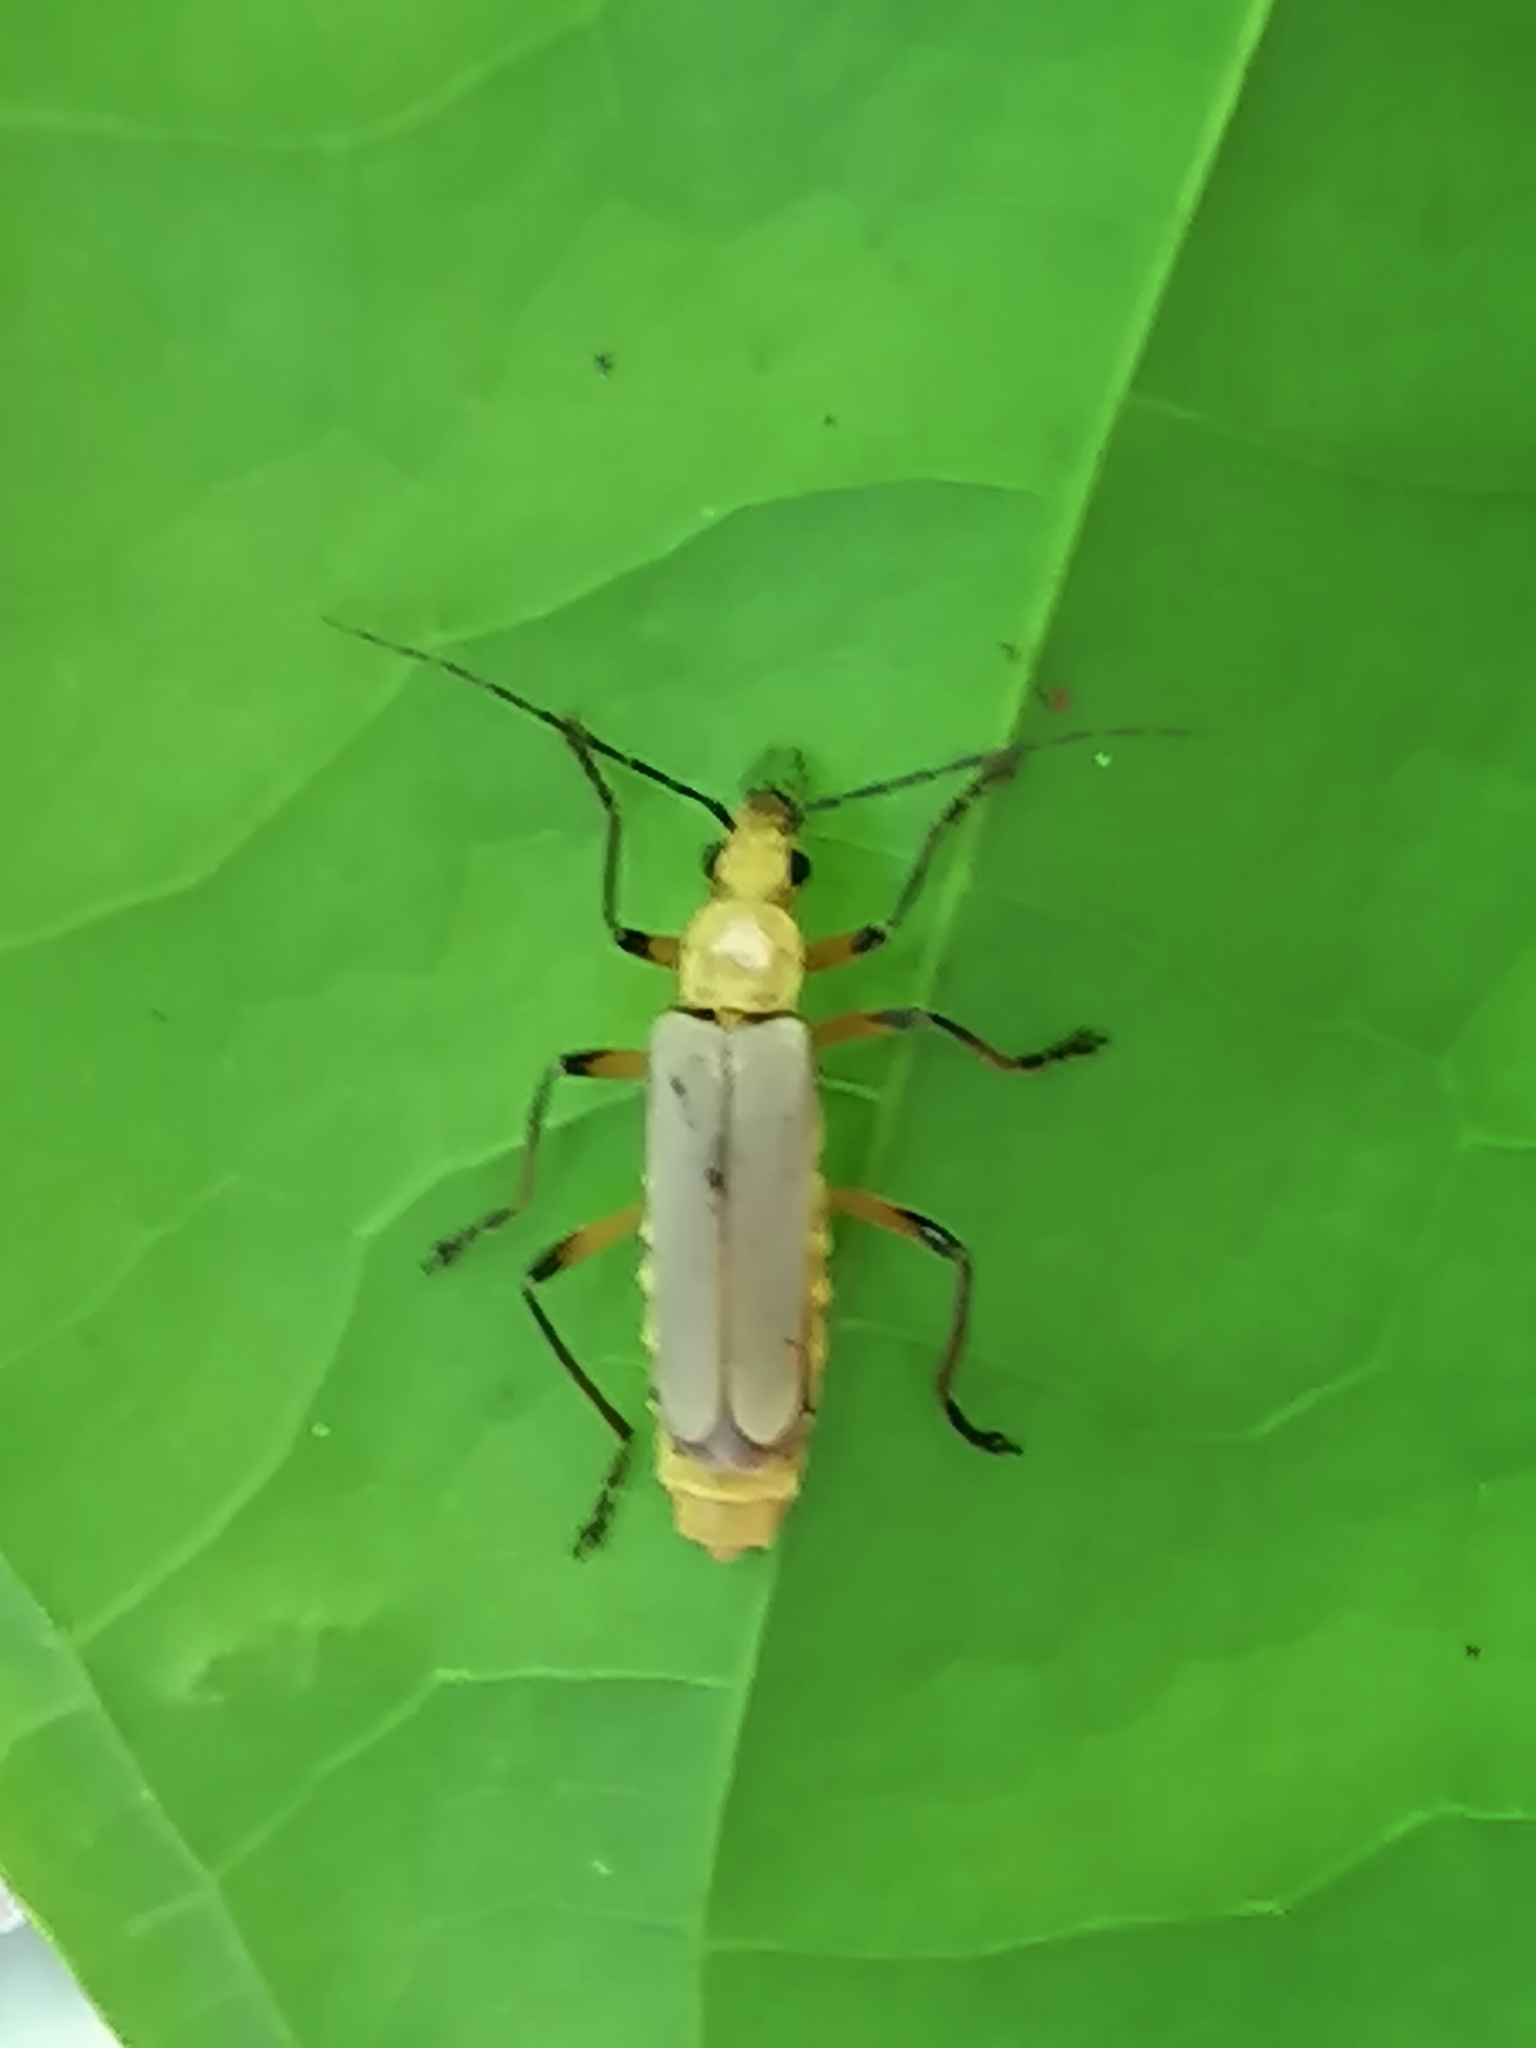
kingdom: Animalia
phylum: Arthropoda
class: Insecta
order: Coleoptera
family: Cantharidae
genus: Chauliognathus
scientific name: Chauliognathus
